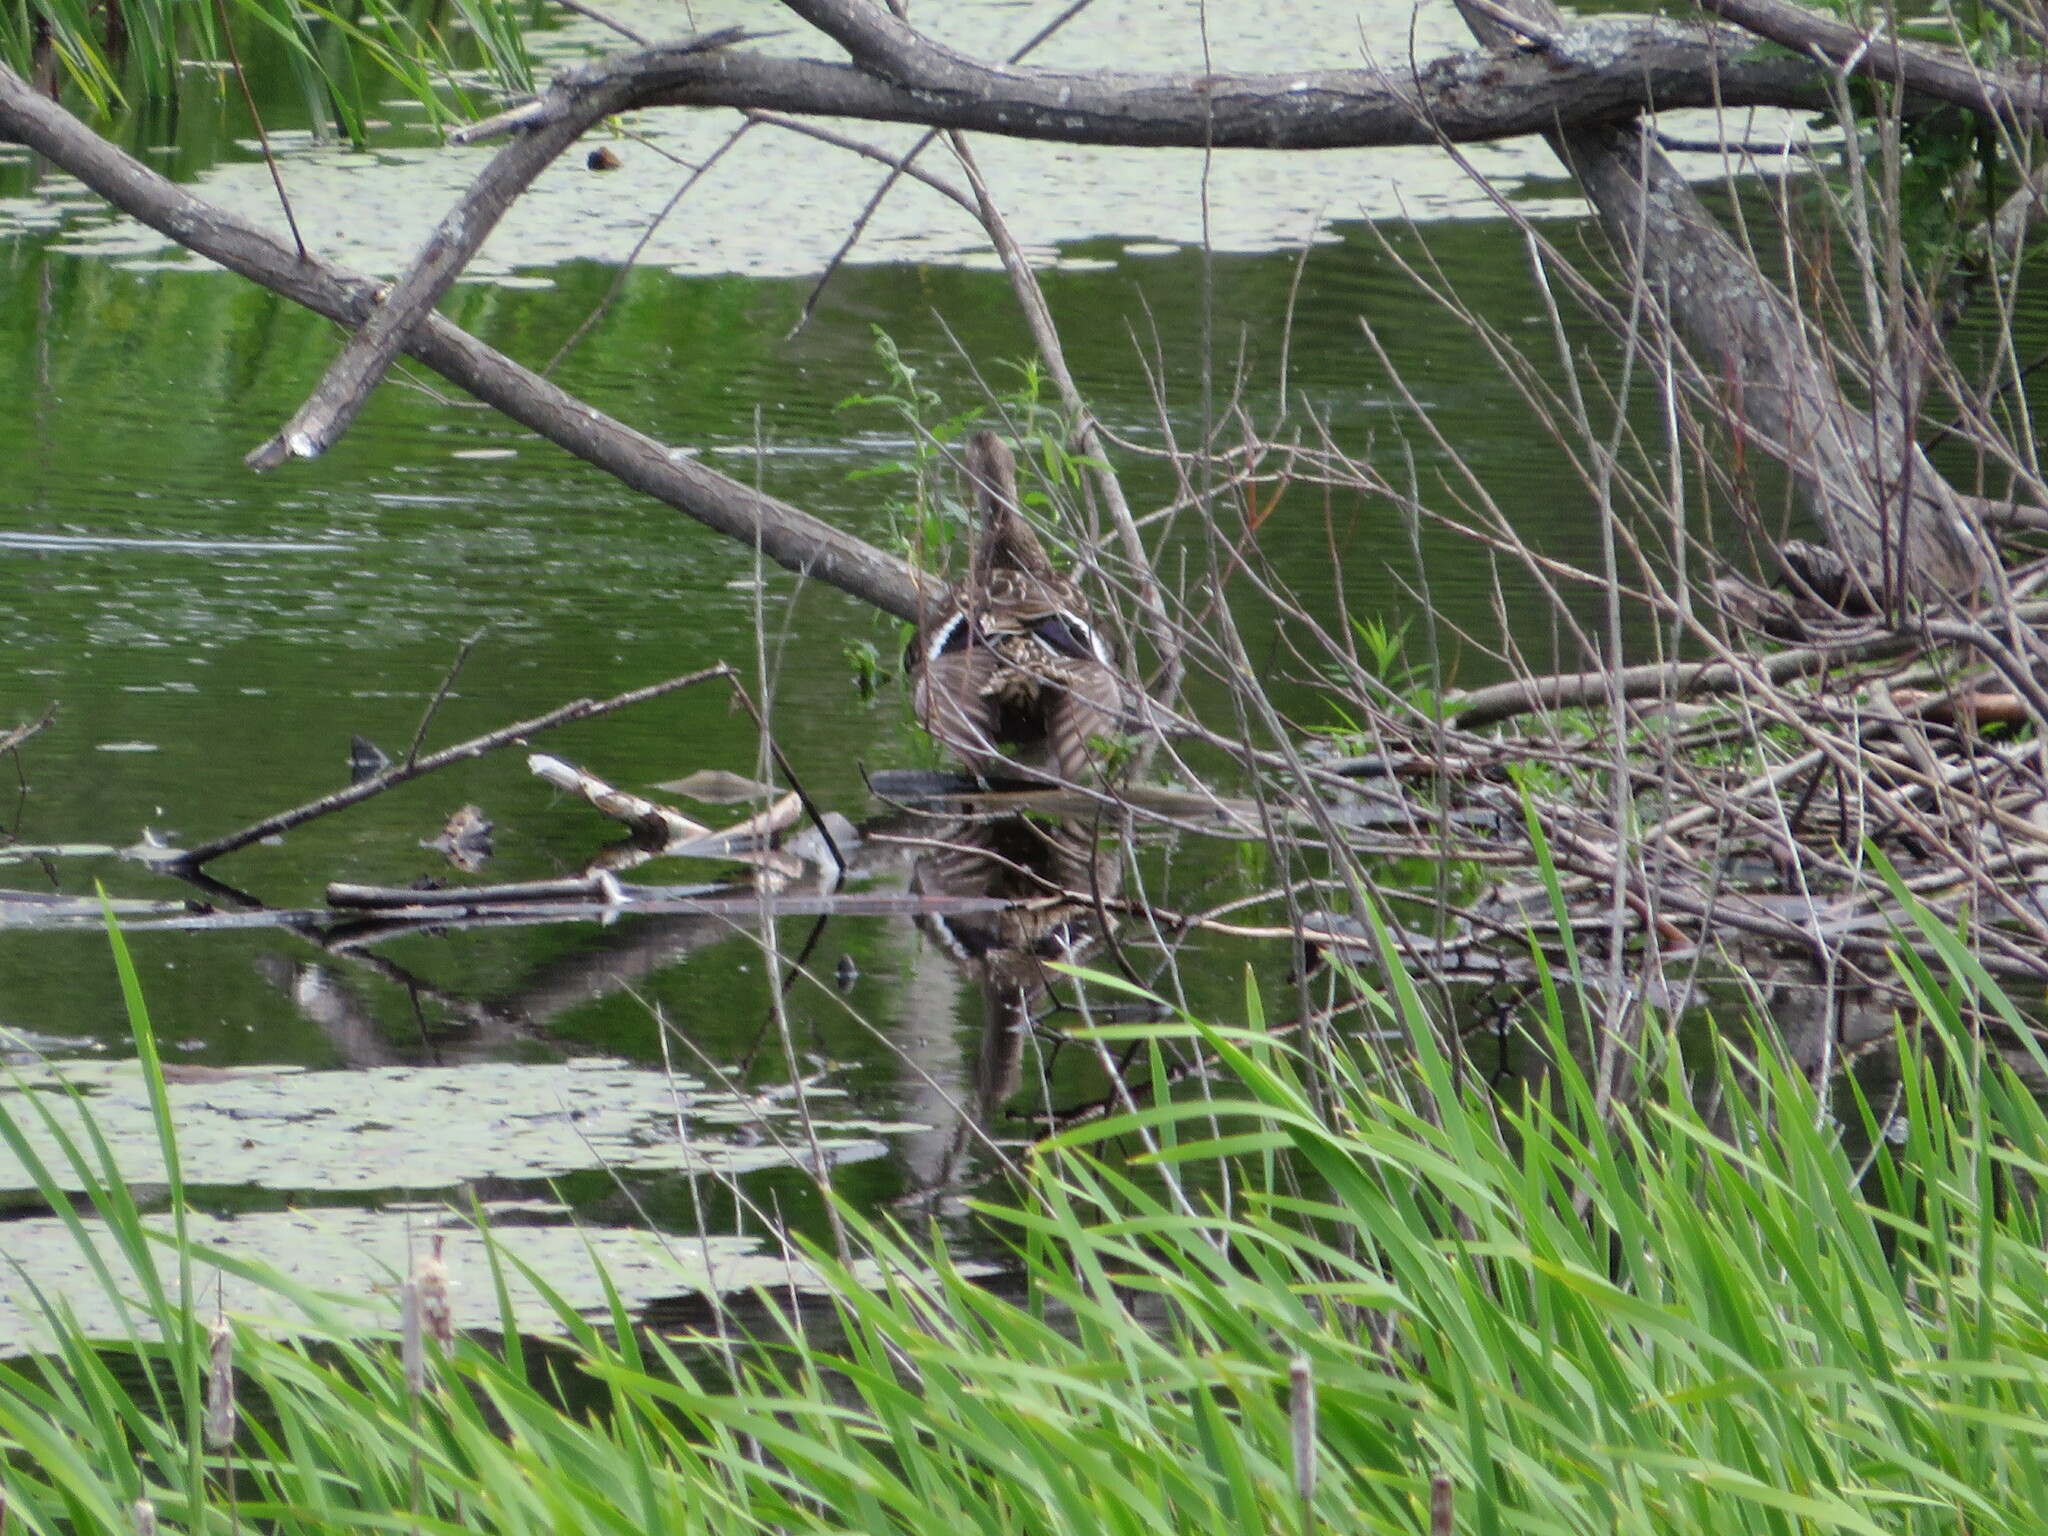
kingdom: Animalia
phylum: Chordata
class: Aves
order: Anseriformes
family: Anatidae
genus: Anas
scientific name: Anas platyrhynchos
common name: Mallard
